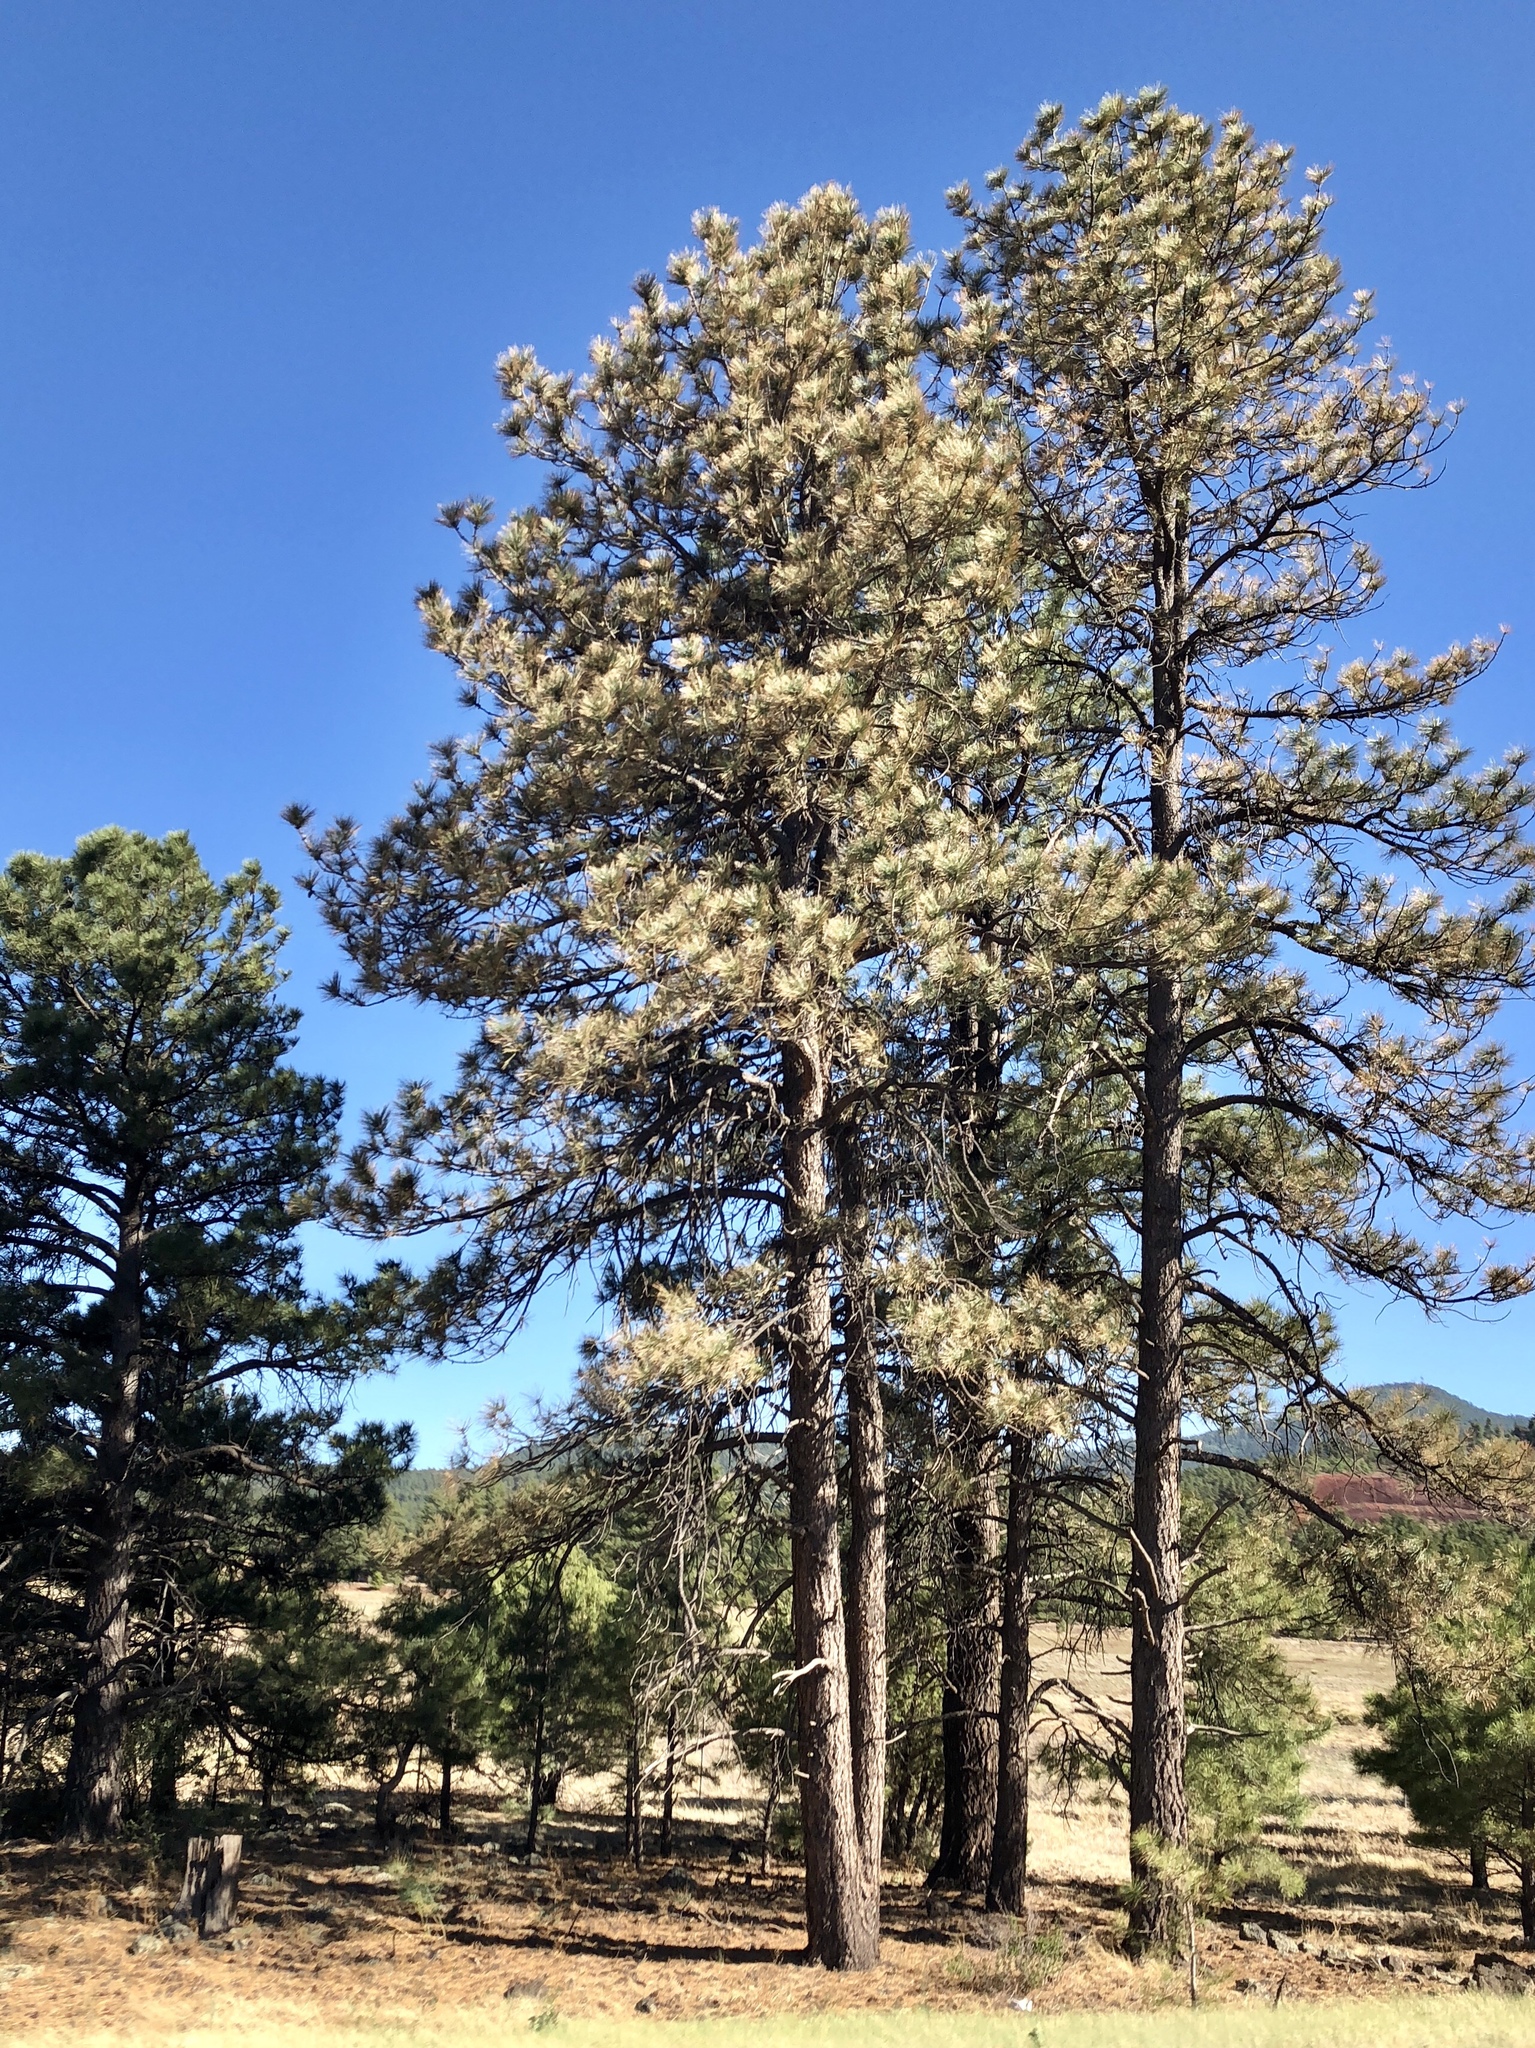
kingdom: Plantae
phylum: Tracheophyta
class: Pinopsida
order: Pinales
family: Pinaceae
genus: Pinus
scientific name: Pinus ponderosa
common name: Western yellow-pine
